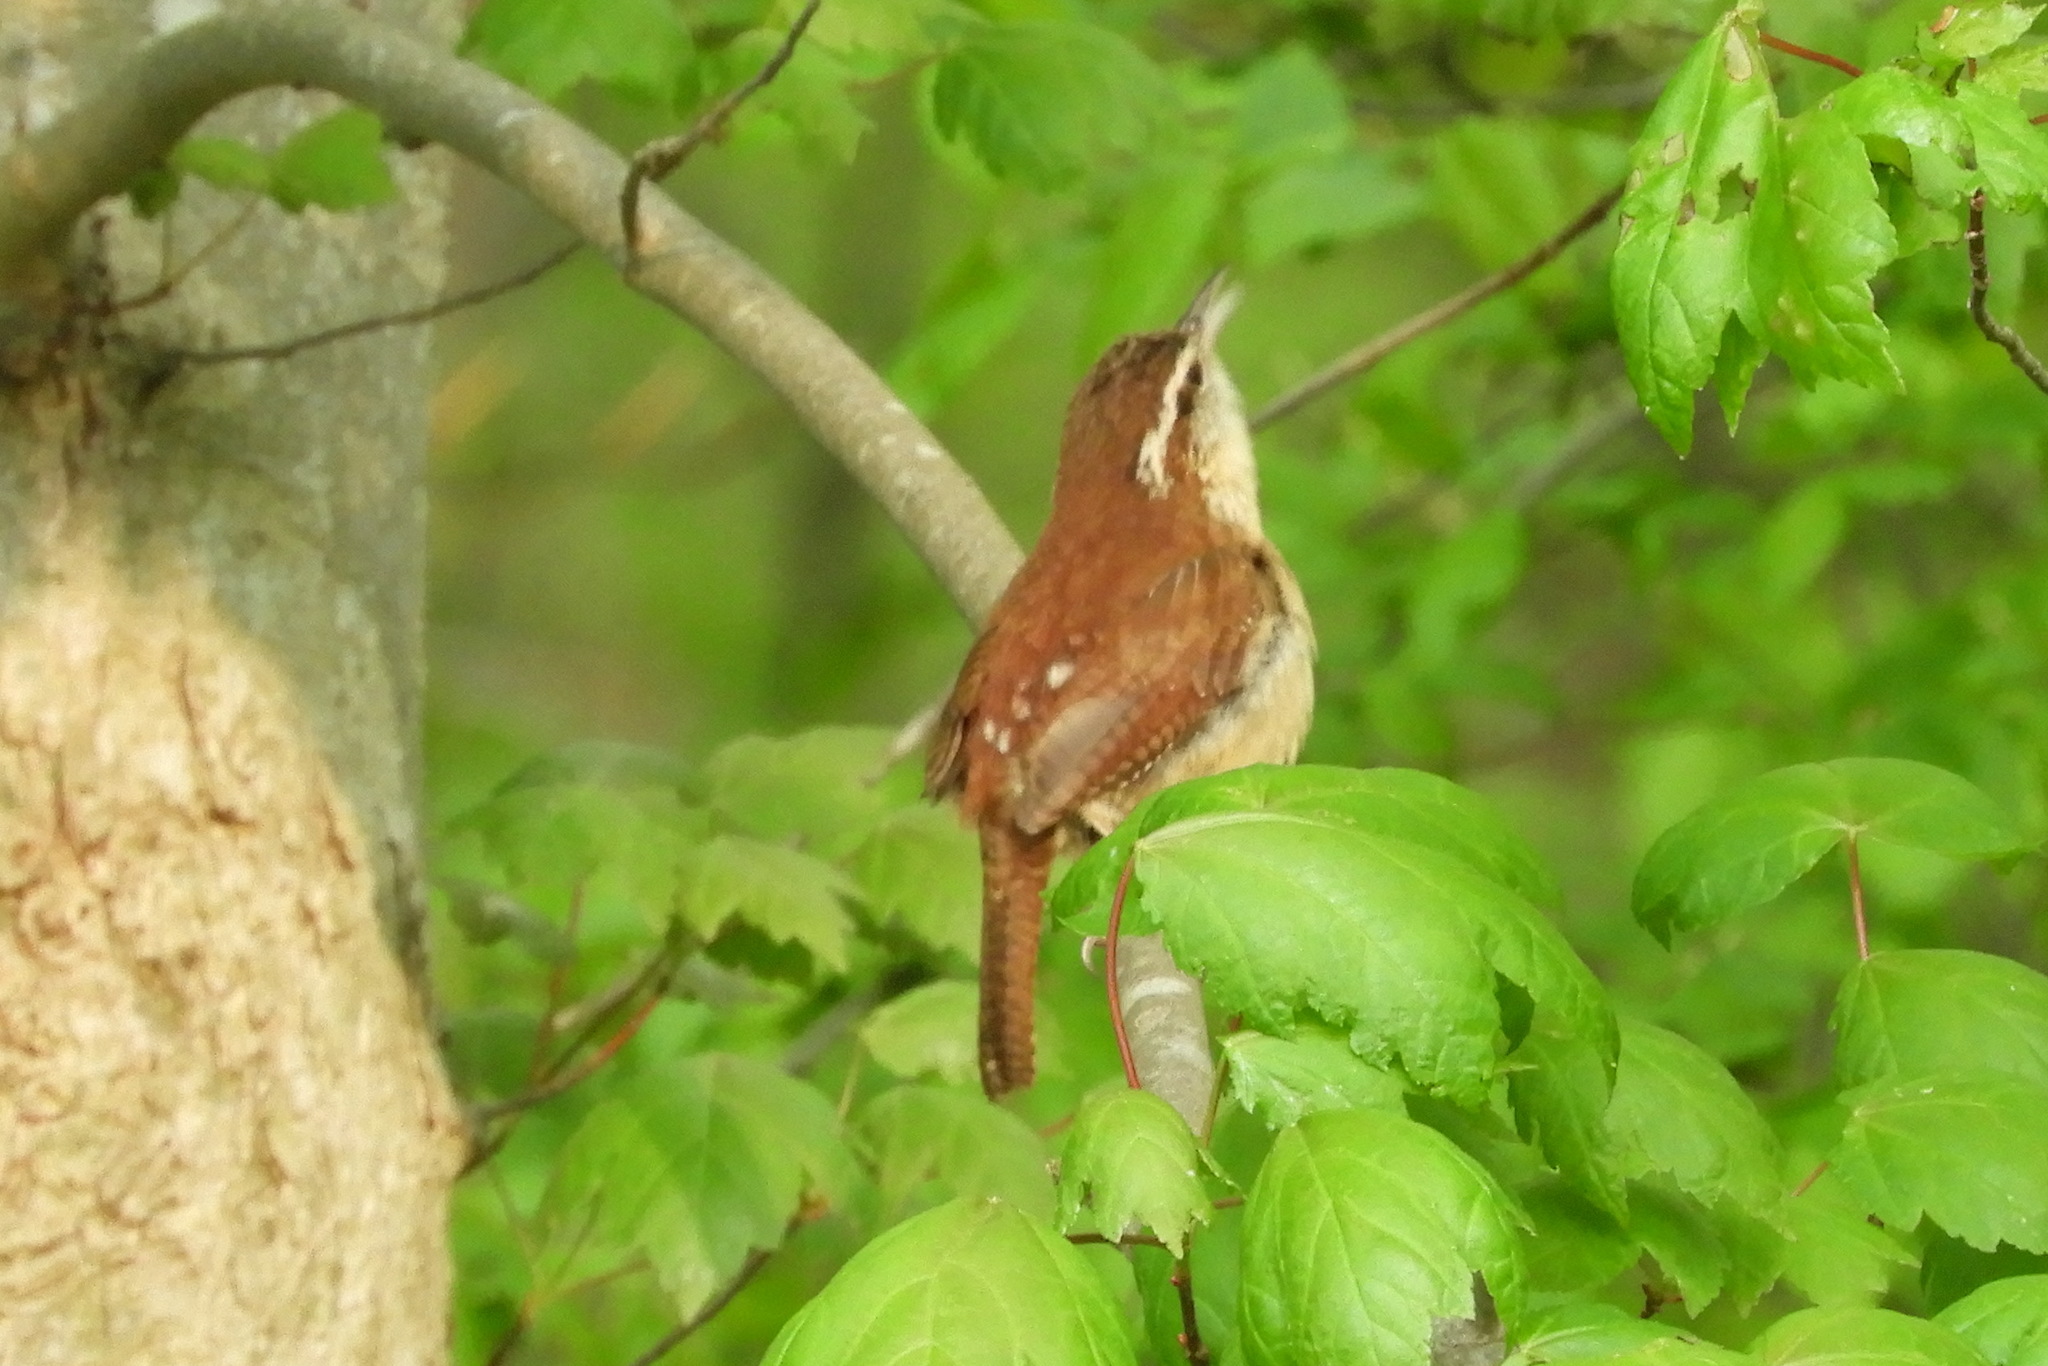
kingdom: Animalia
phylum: Chordata
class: Aves
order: Passeriformes
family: Troglodytidae
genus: Thryothorus
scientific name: Thryothorus ludovicianus
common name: Carolina wren
